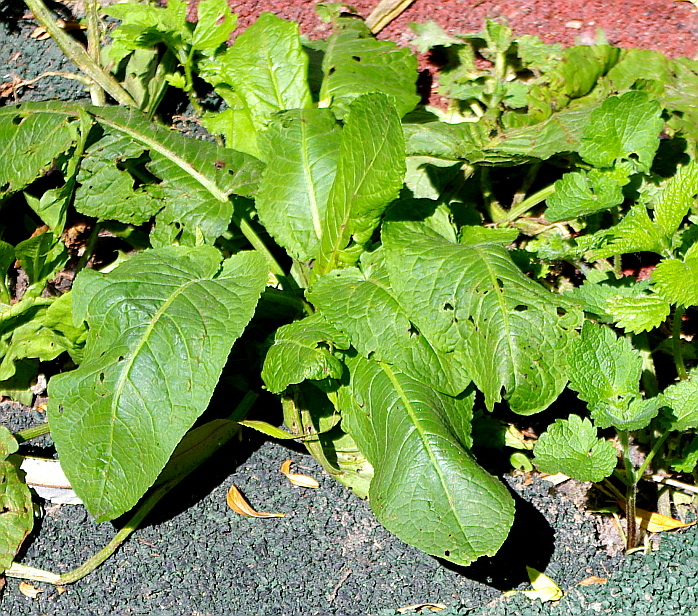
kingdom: Plantae
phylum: Tracheophyta
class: Magnoliopsida
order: Caryophyllales
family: Polygonaceae
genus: Rumex
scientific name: Rumex obtusifolius
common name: Bitter dock
